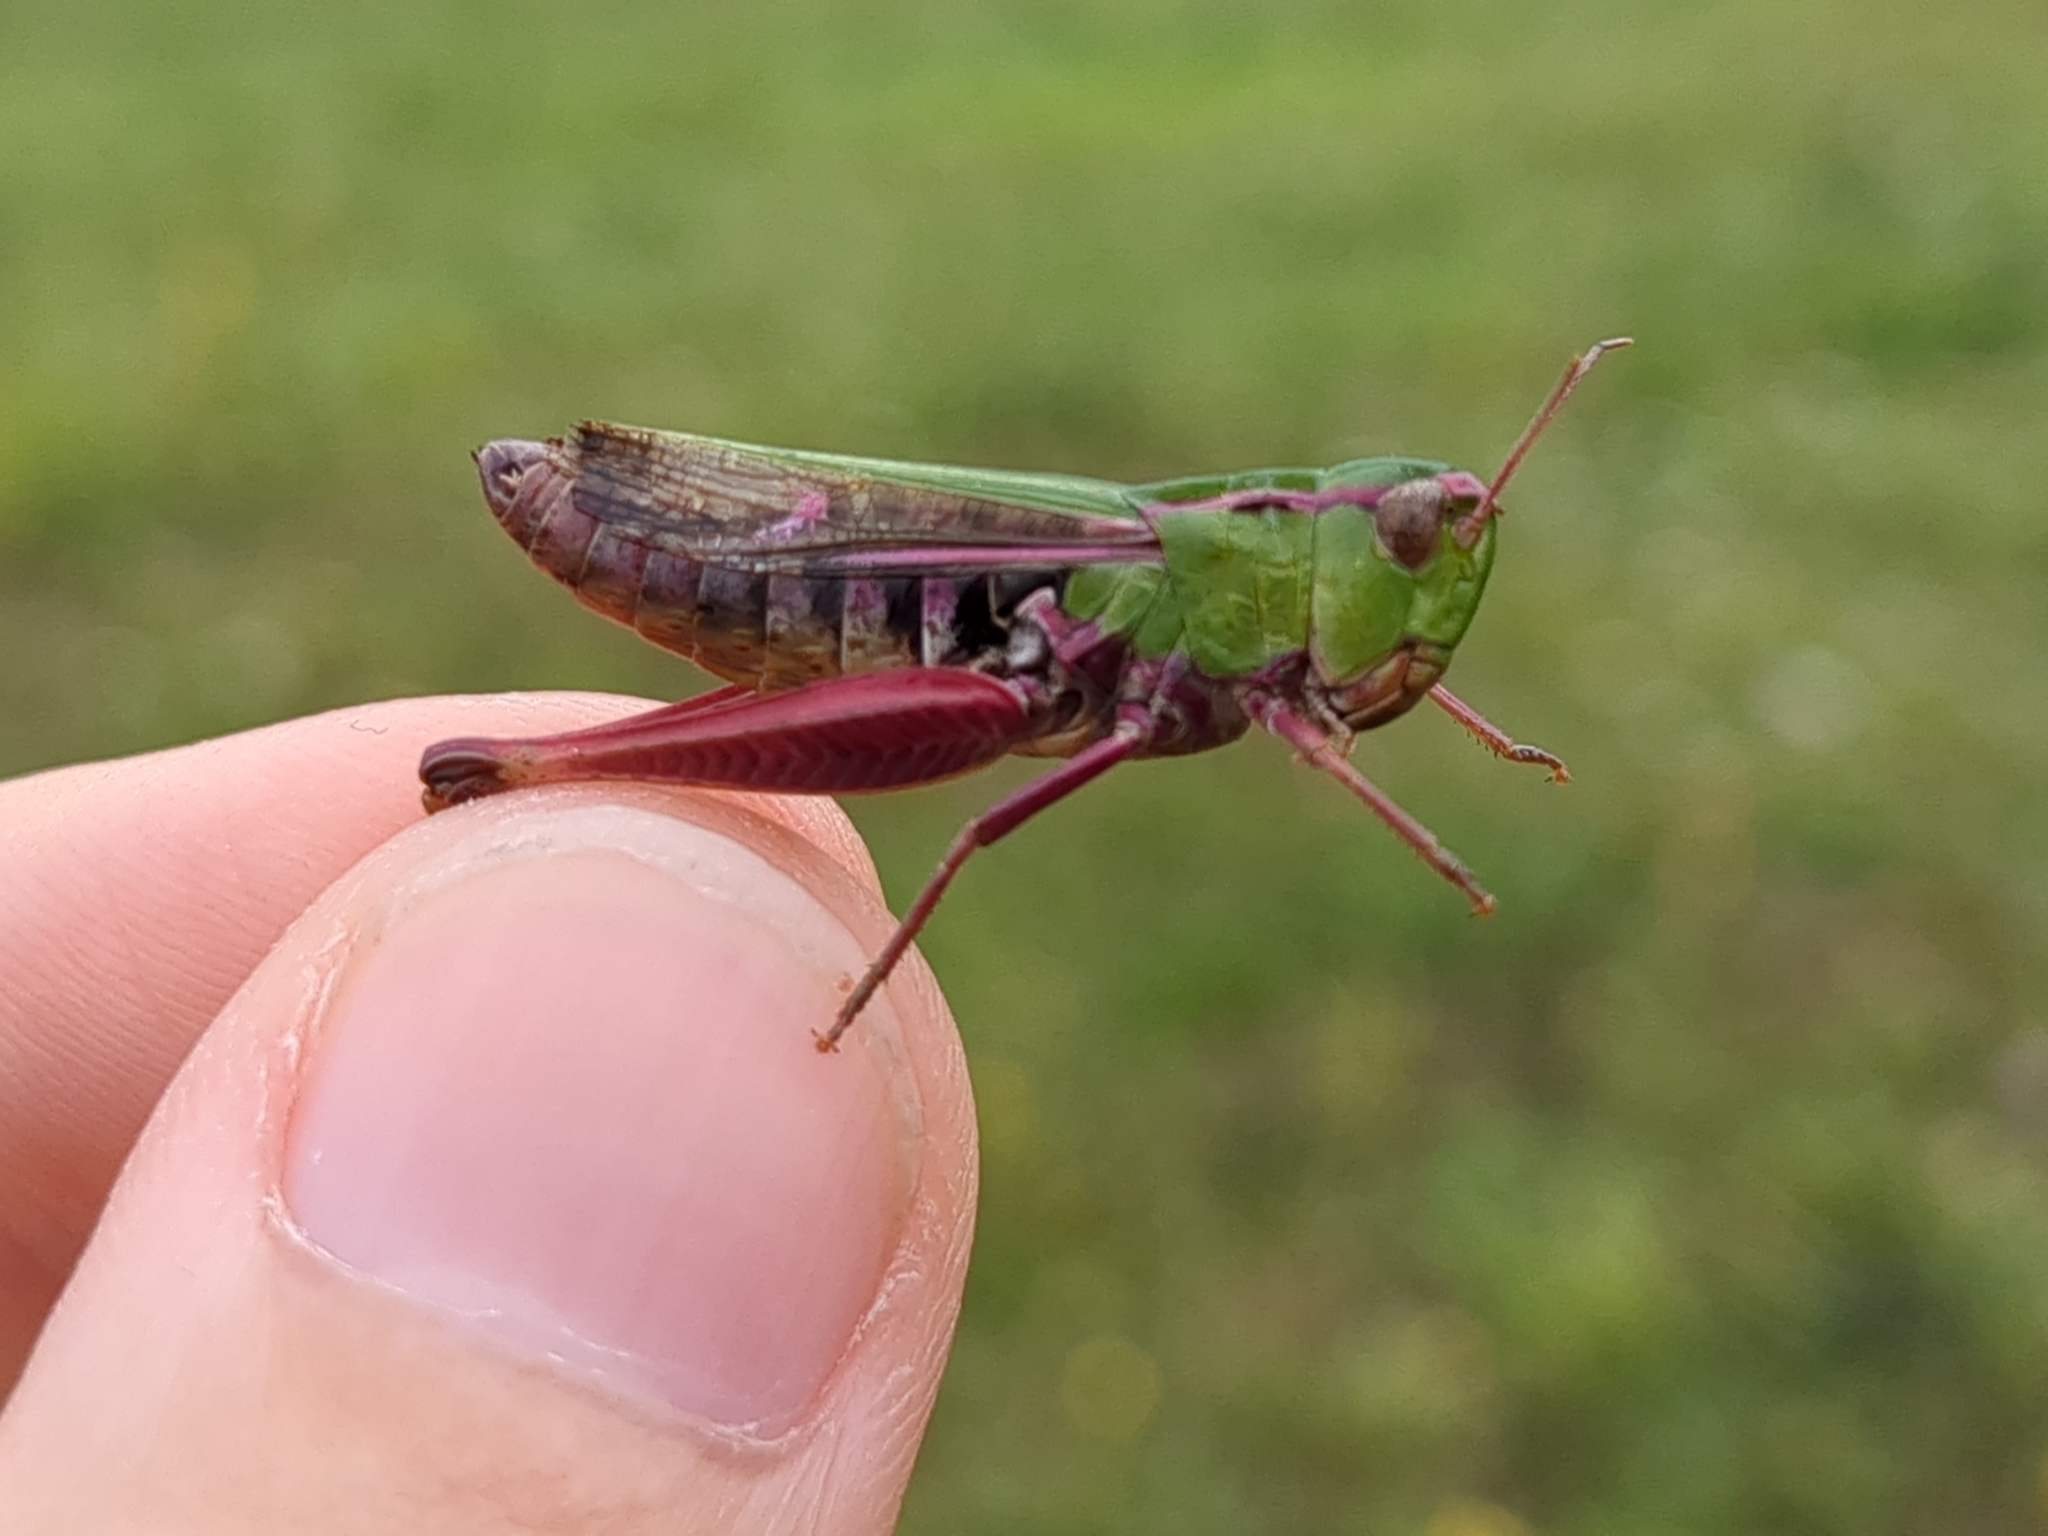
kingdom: Animalia
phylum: Arthropoda
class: Insecta
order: Orthoptera
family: Acrididae
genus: Stenobothrus
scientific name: Stenobothrus lineatus
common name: Stripe-winged grasshopper
